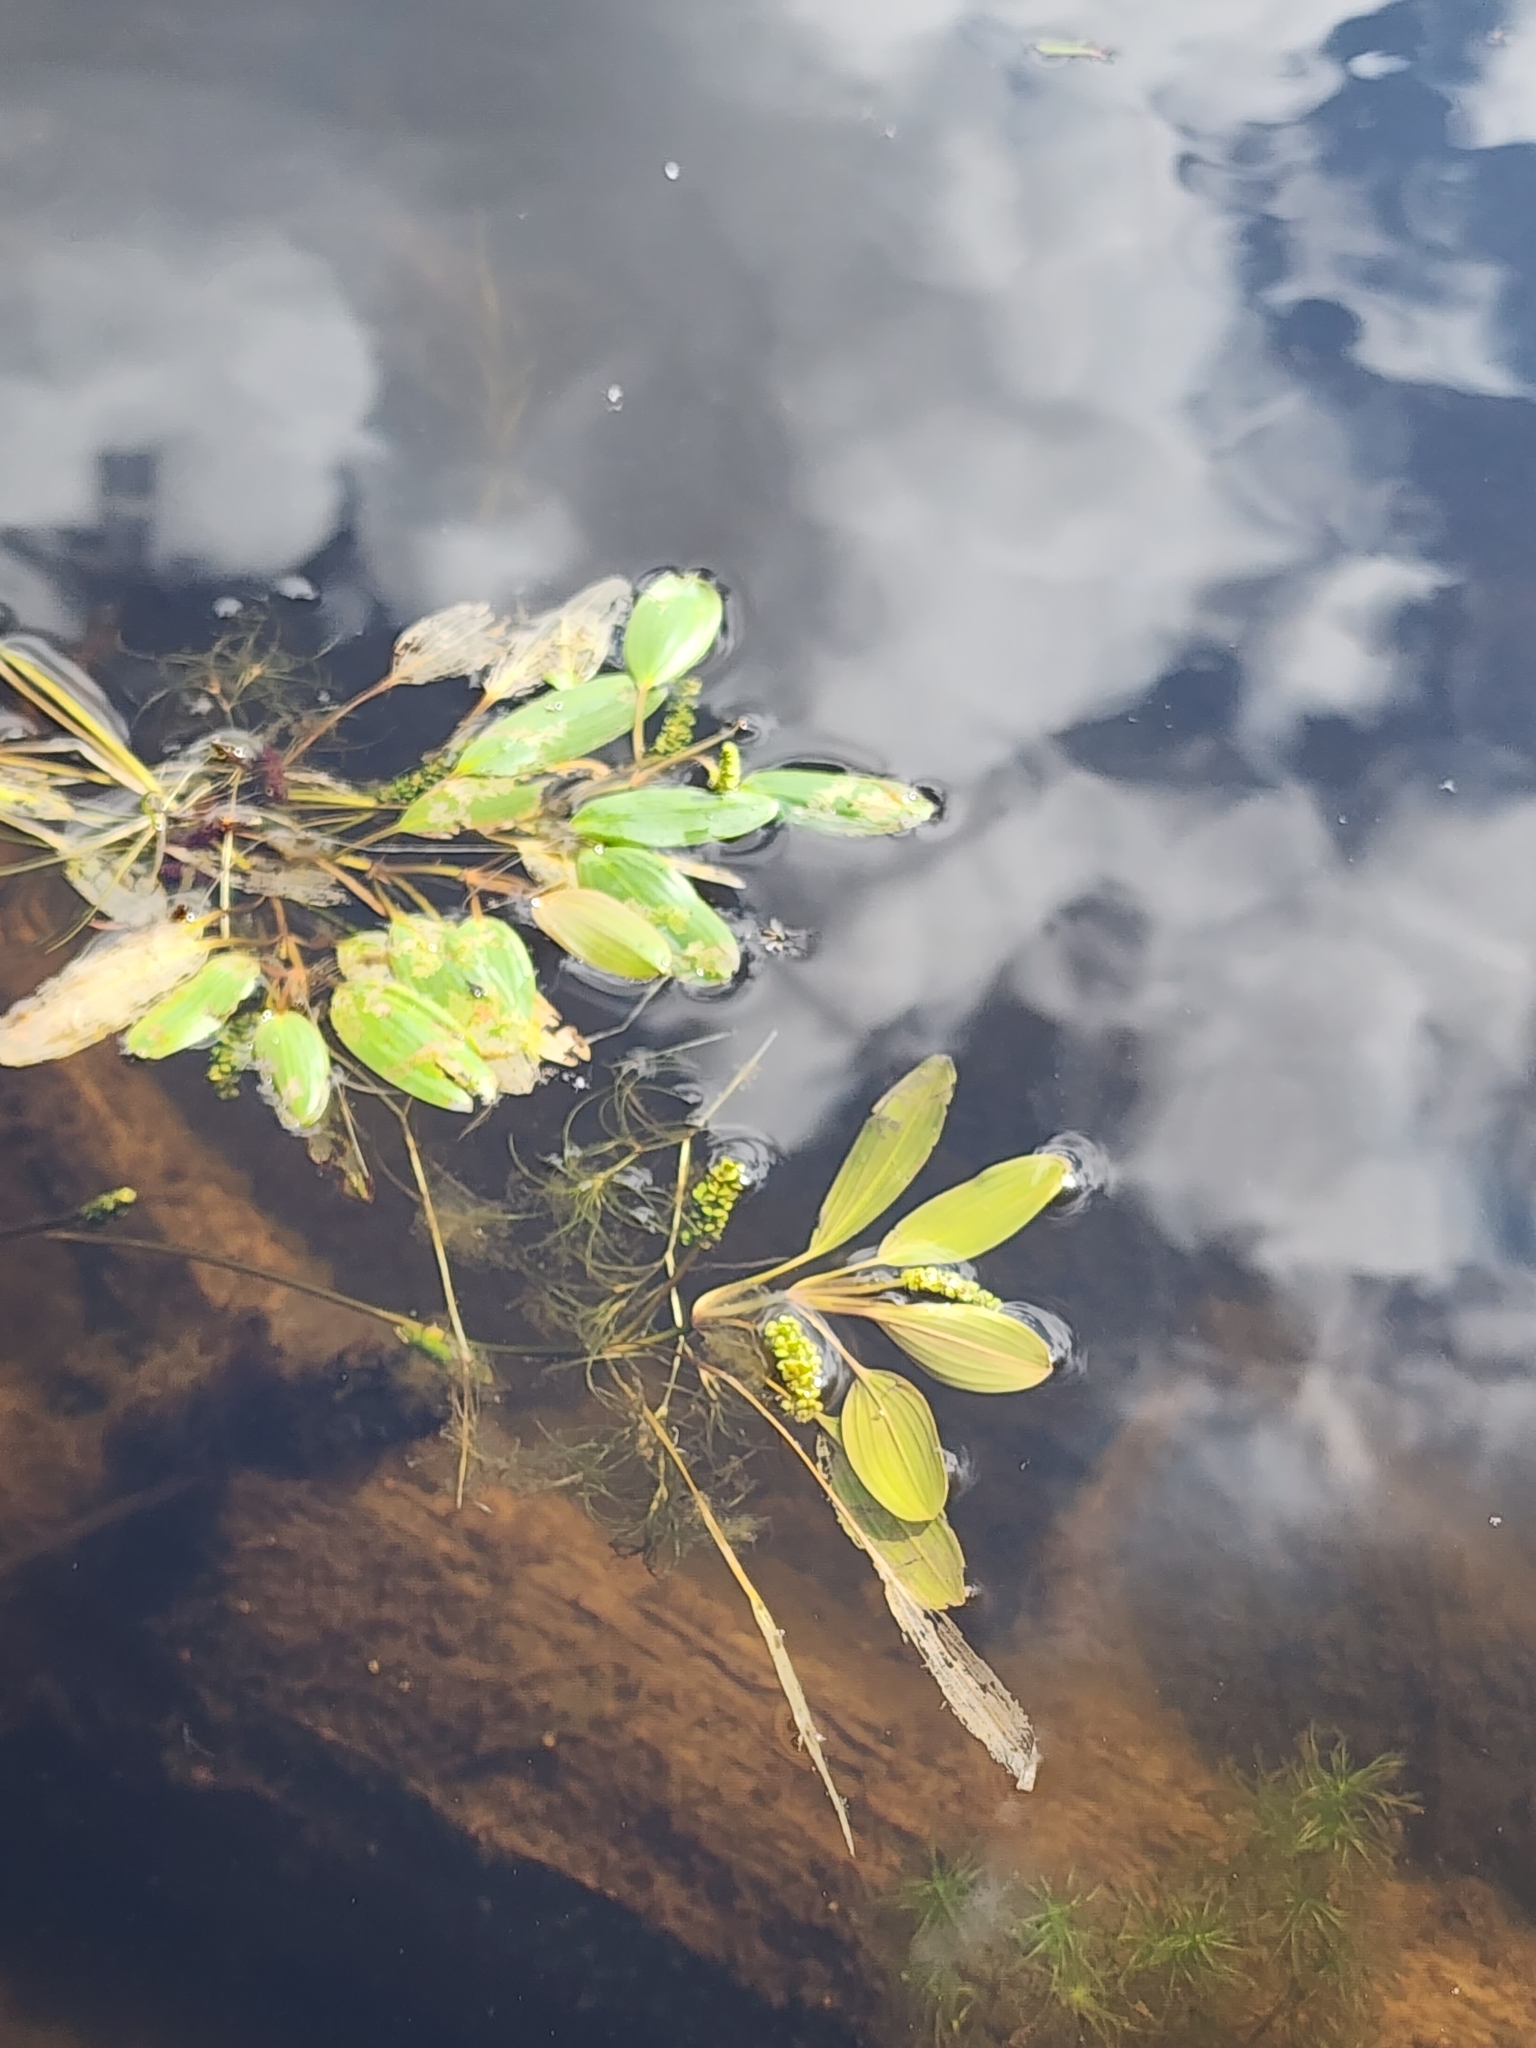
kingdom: Plantae
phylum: Tracheophyta
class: Liliopsida
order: Alismatales
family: Potamogetonaceae
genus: Potamogeton
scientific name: Potamogeton epihydrus
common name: American pondweed
